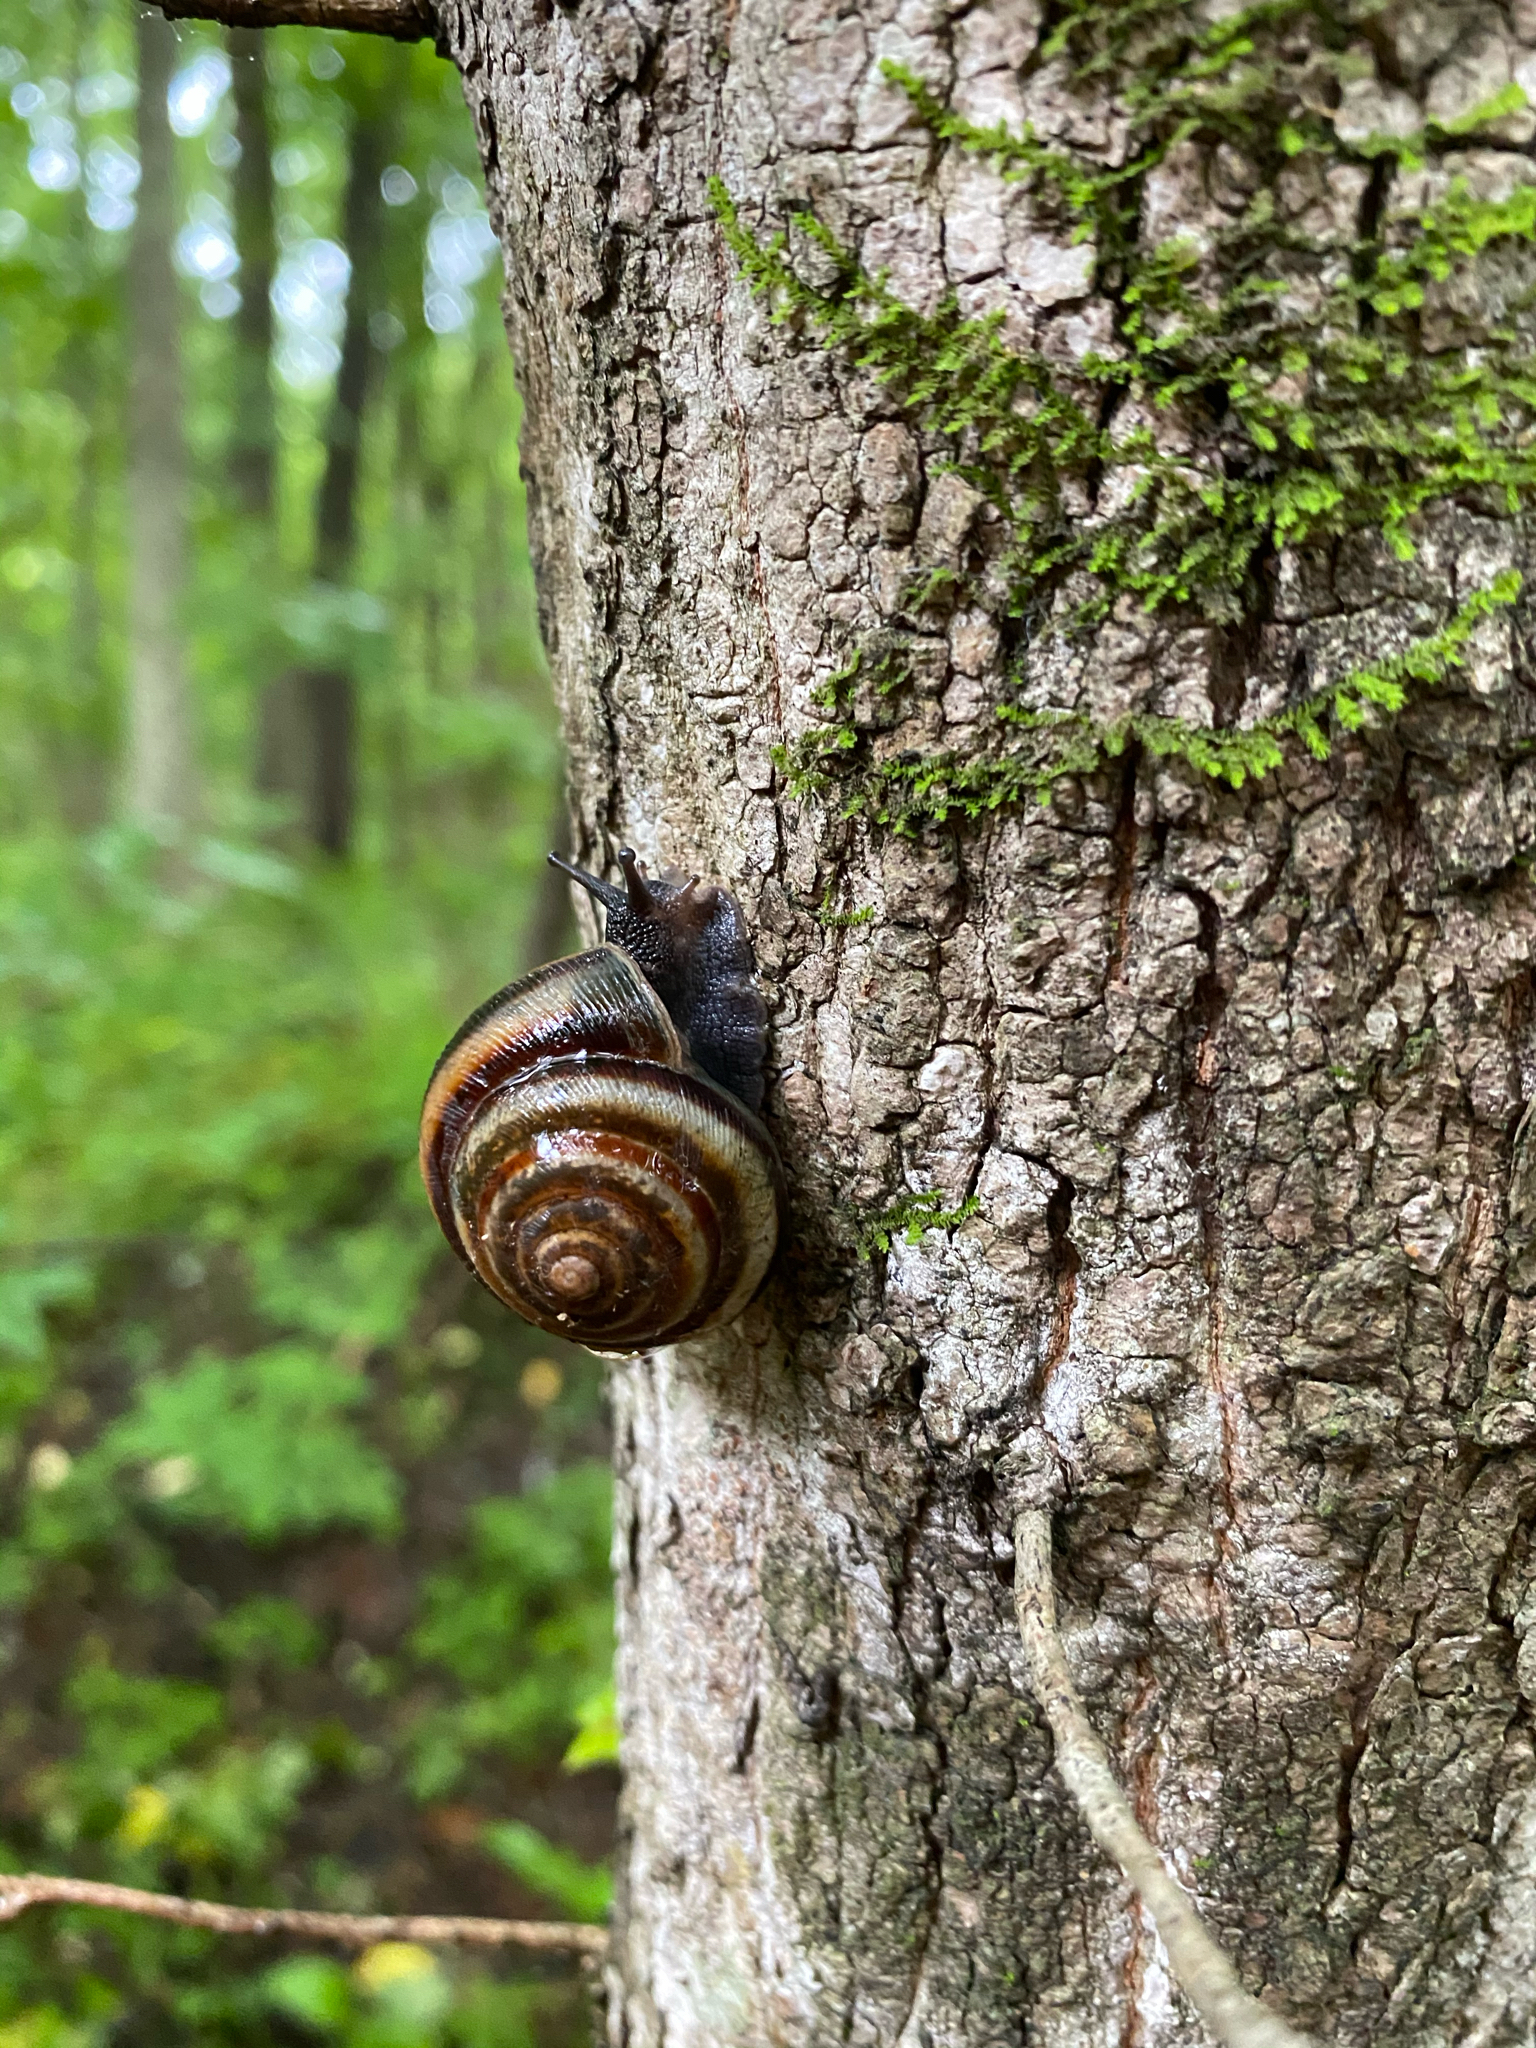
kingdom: Animalia
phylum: Mollusca
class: Gastropoda
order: Stylommatophora
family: Camaenidae
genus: Karaftohelix
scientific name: Karaftohelix maackii
